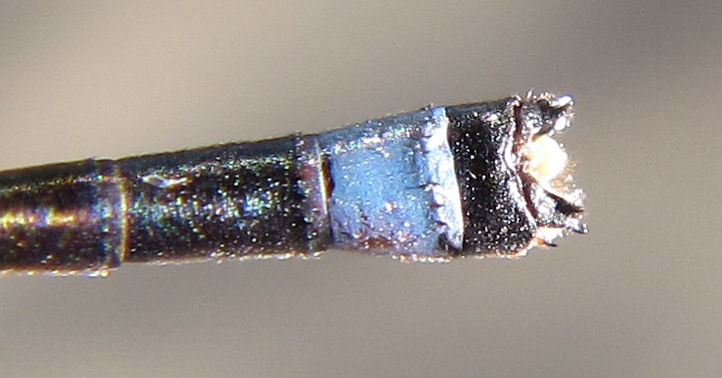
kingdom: Animalia
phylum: Arthropoda
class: Insecta
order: Odonata
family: Coenagrionidae
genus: Pinheyagrion
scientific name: Pinheyagrion angolicum
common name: Angola bluet
